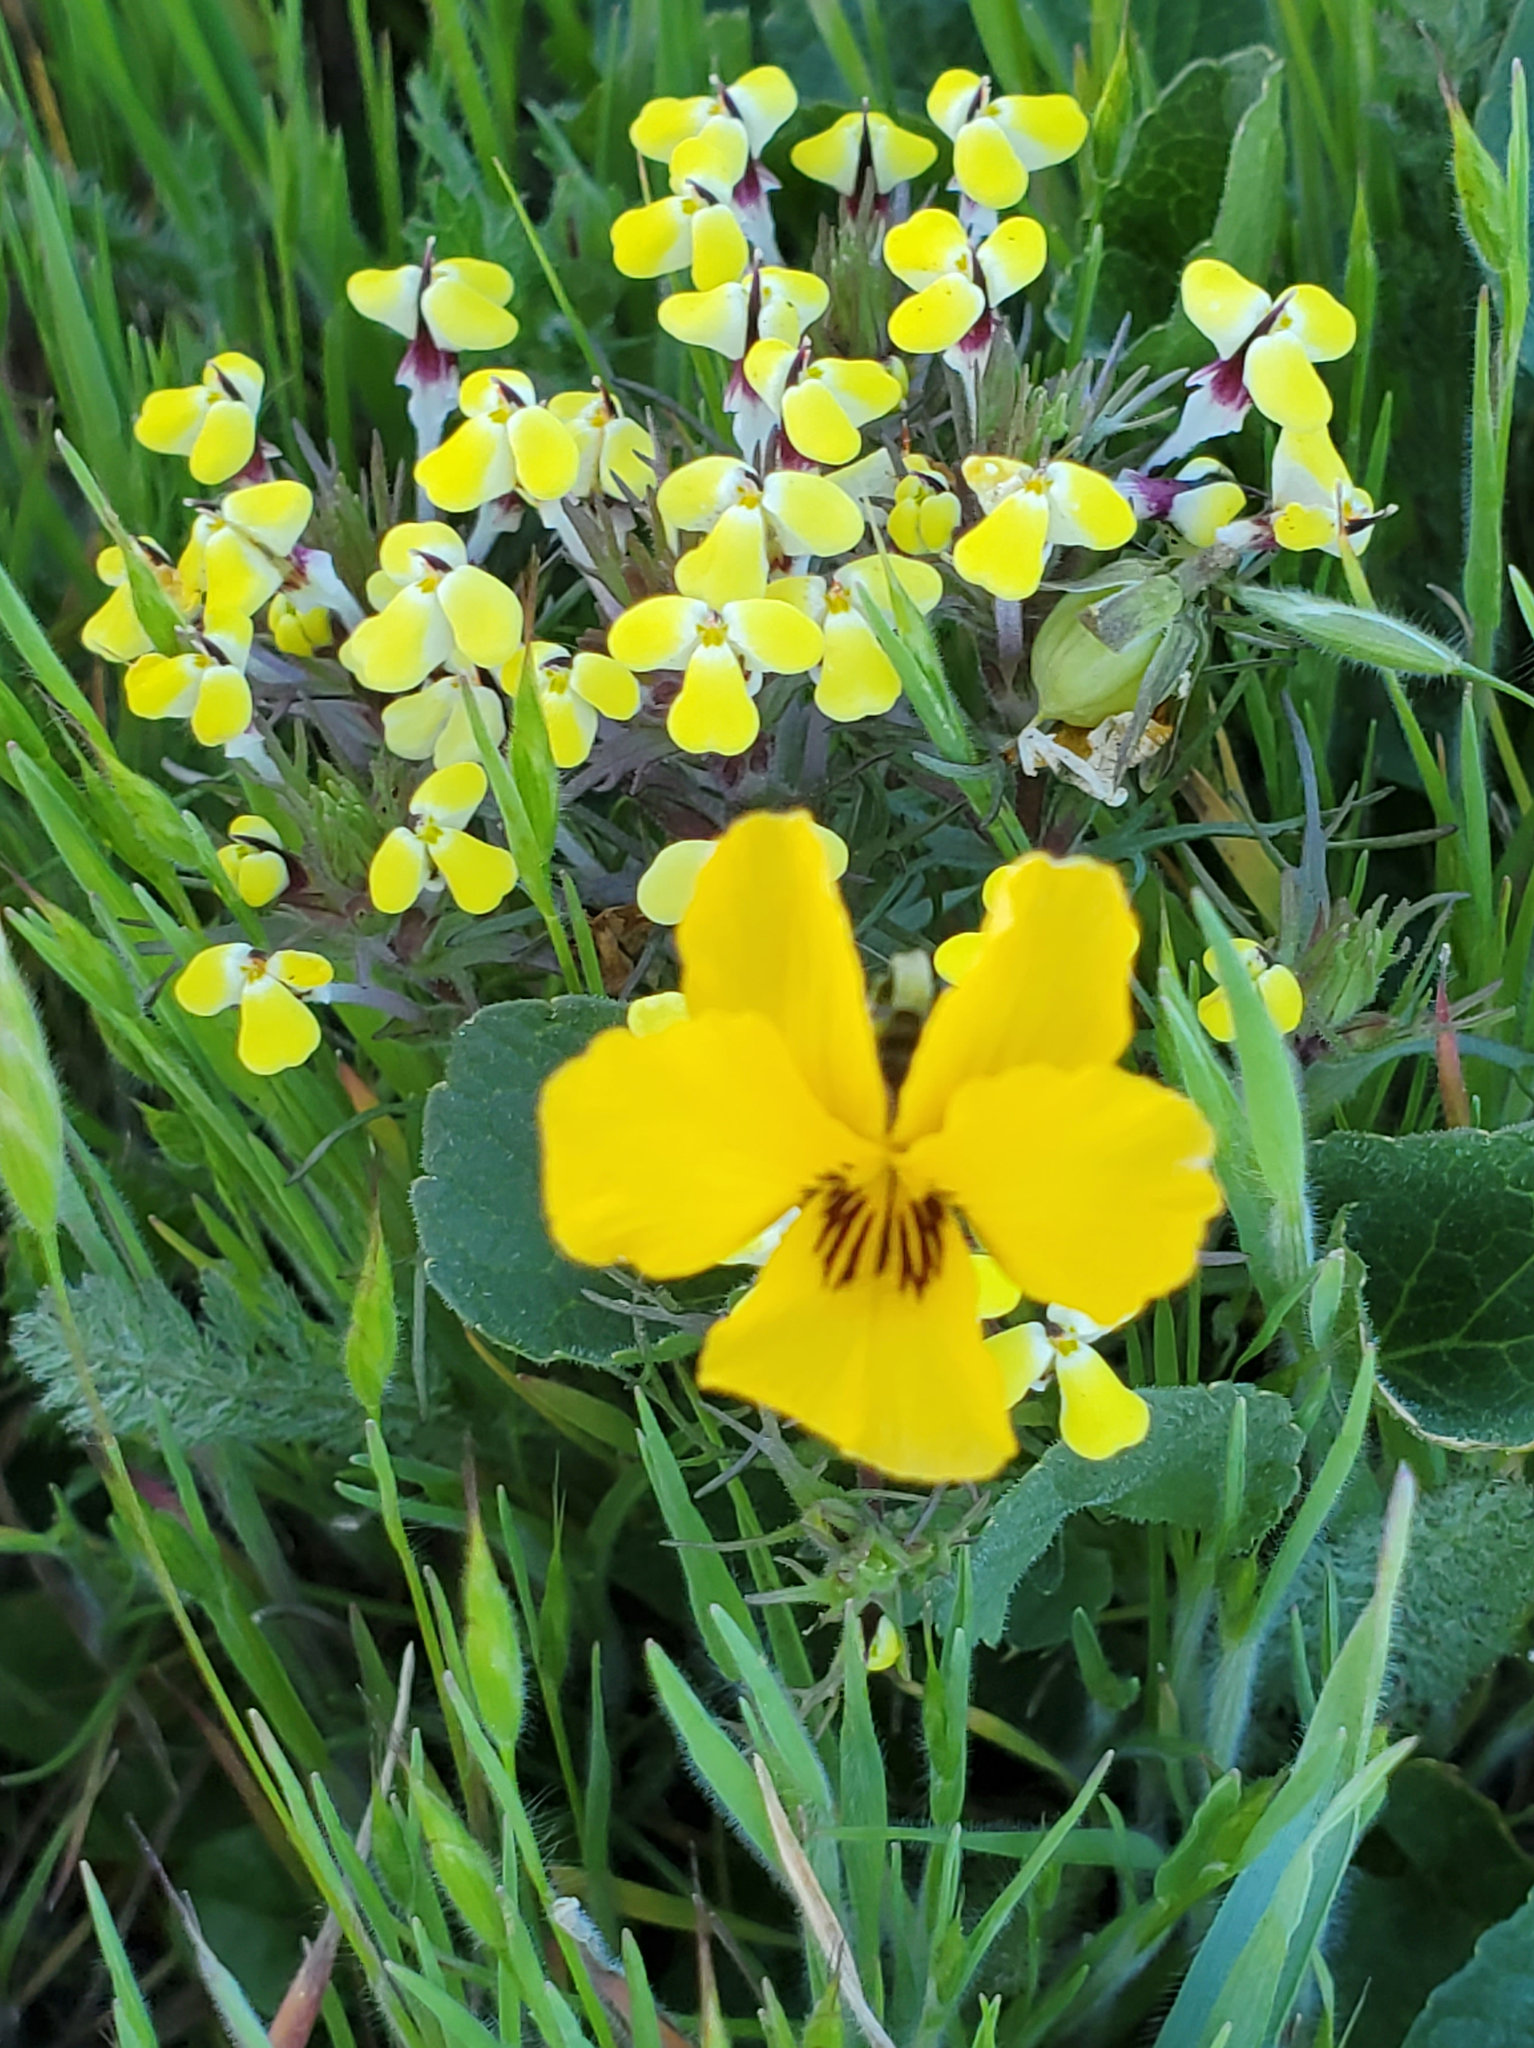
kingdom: Plantae
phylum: Tracheophyta
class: Magnoliopsida
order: Lamiales
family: Orobanchaceae
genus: Triphysaria
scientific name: Triphysaria eriantha
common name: Johnny-tuck
